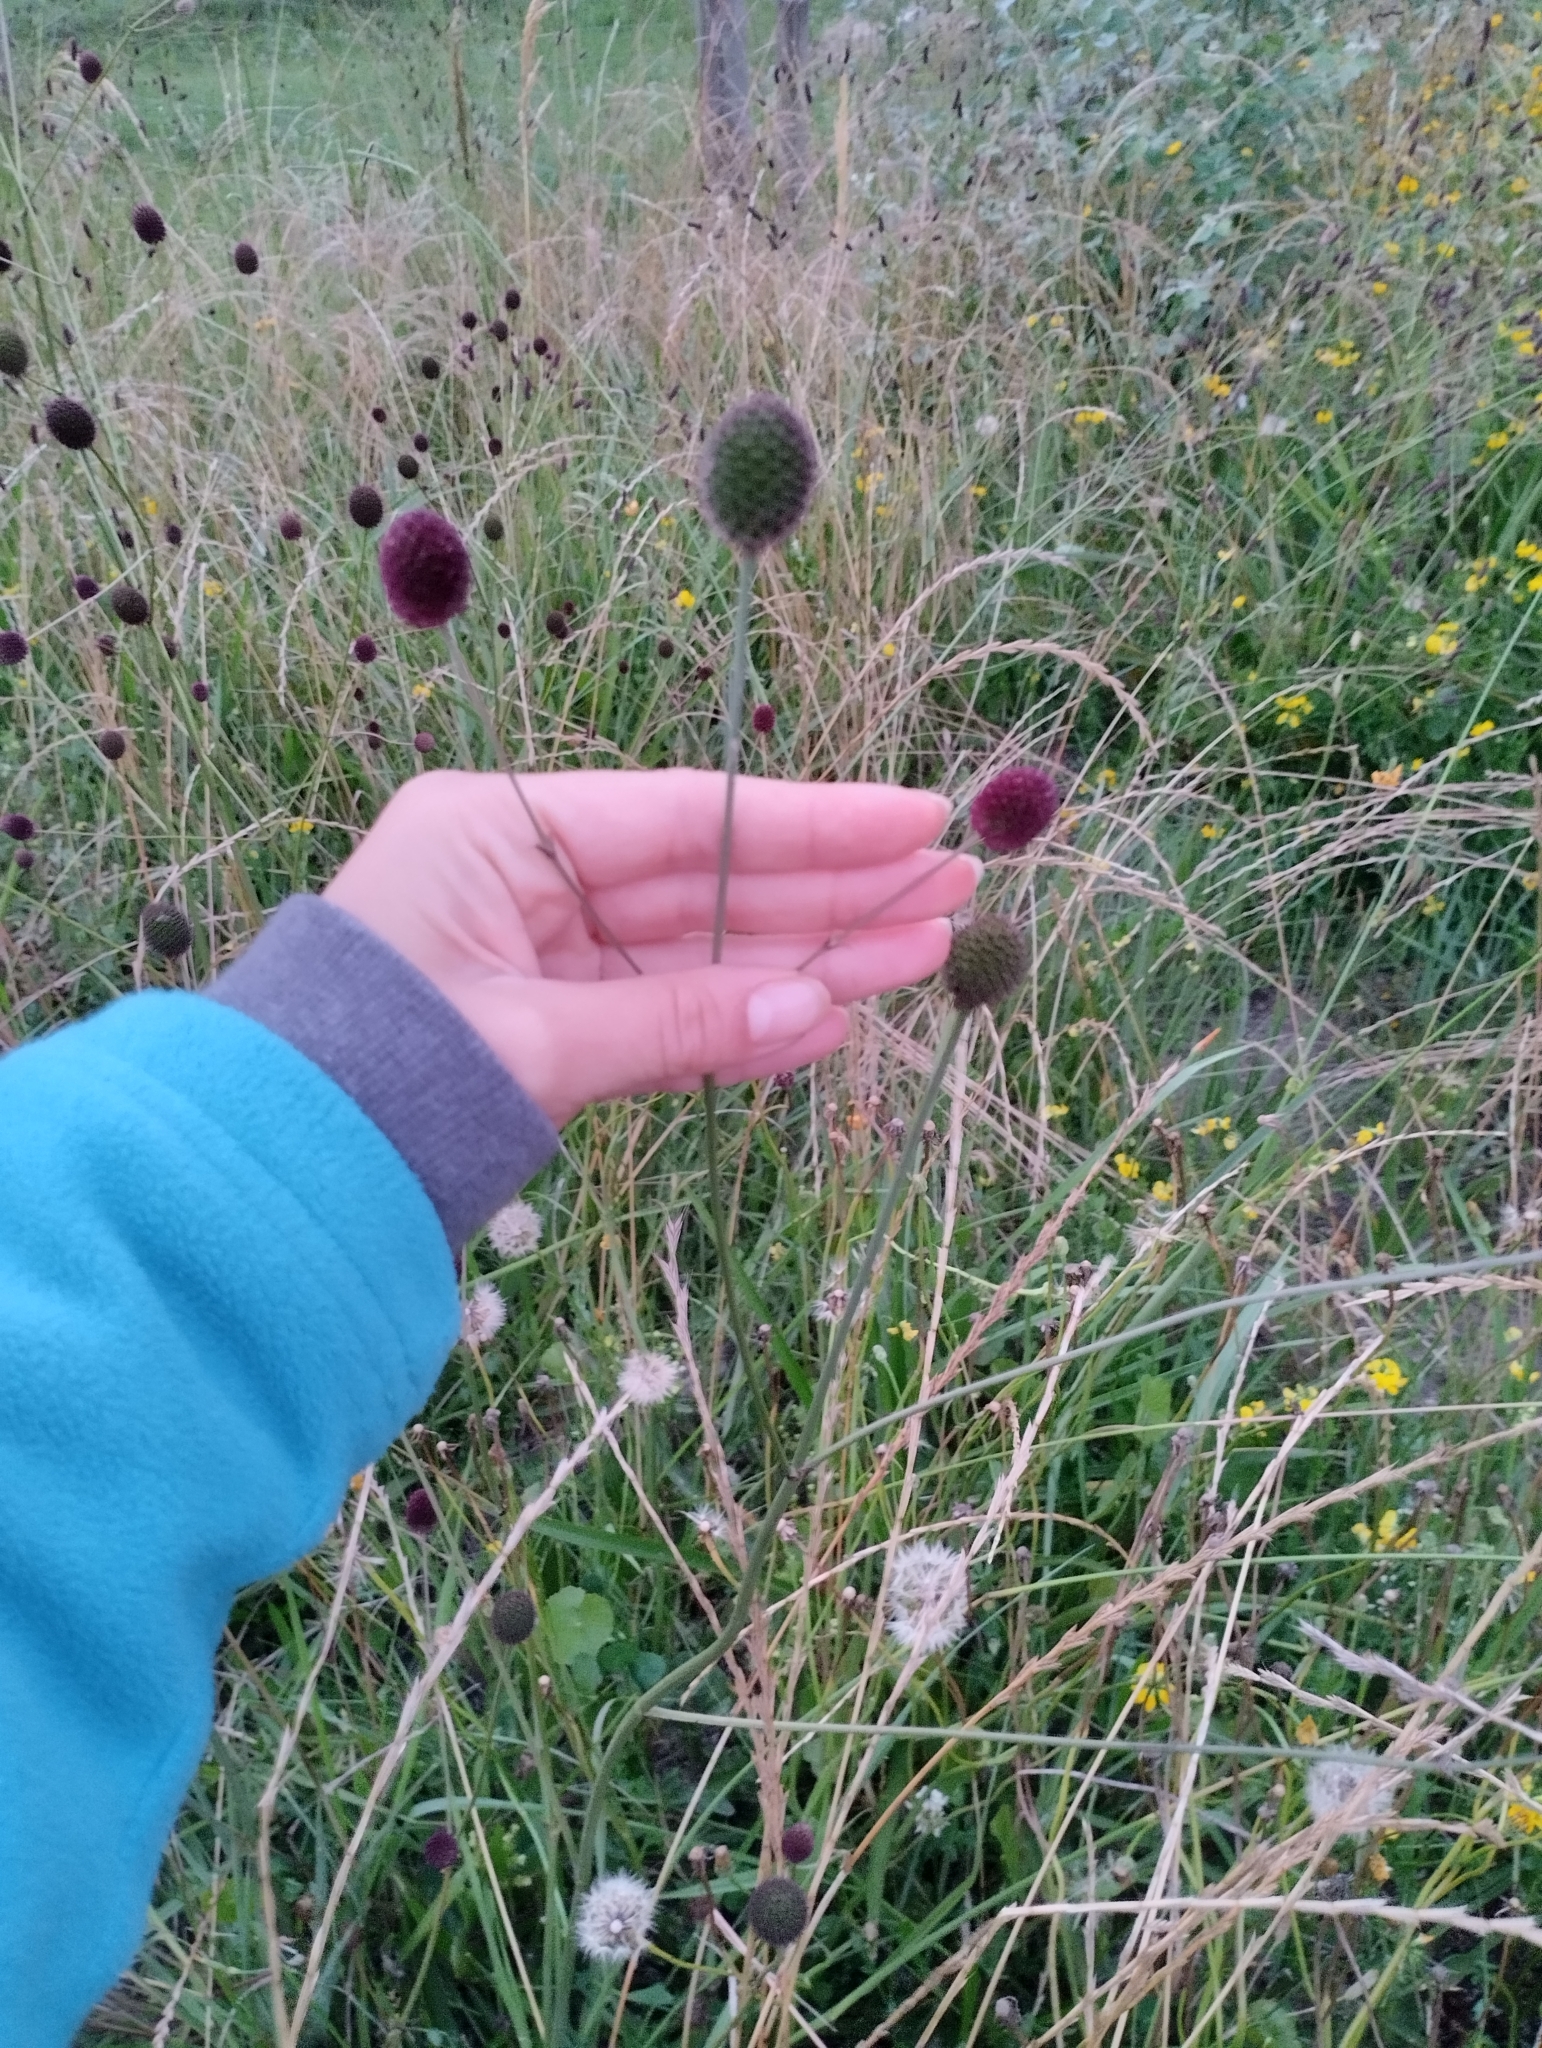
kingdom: Plantae
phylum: Tracheophyta
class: Magnoliopsida
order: Apiales
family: Apiaceae
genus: Eryngium
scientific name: Eryngium sanguisorba
